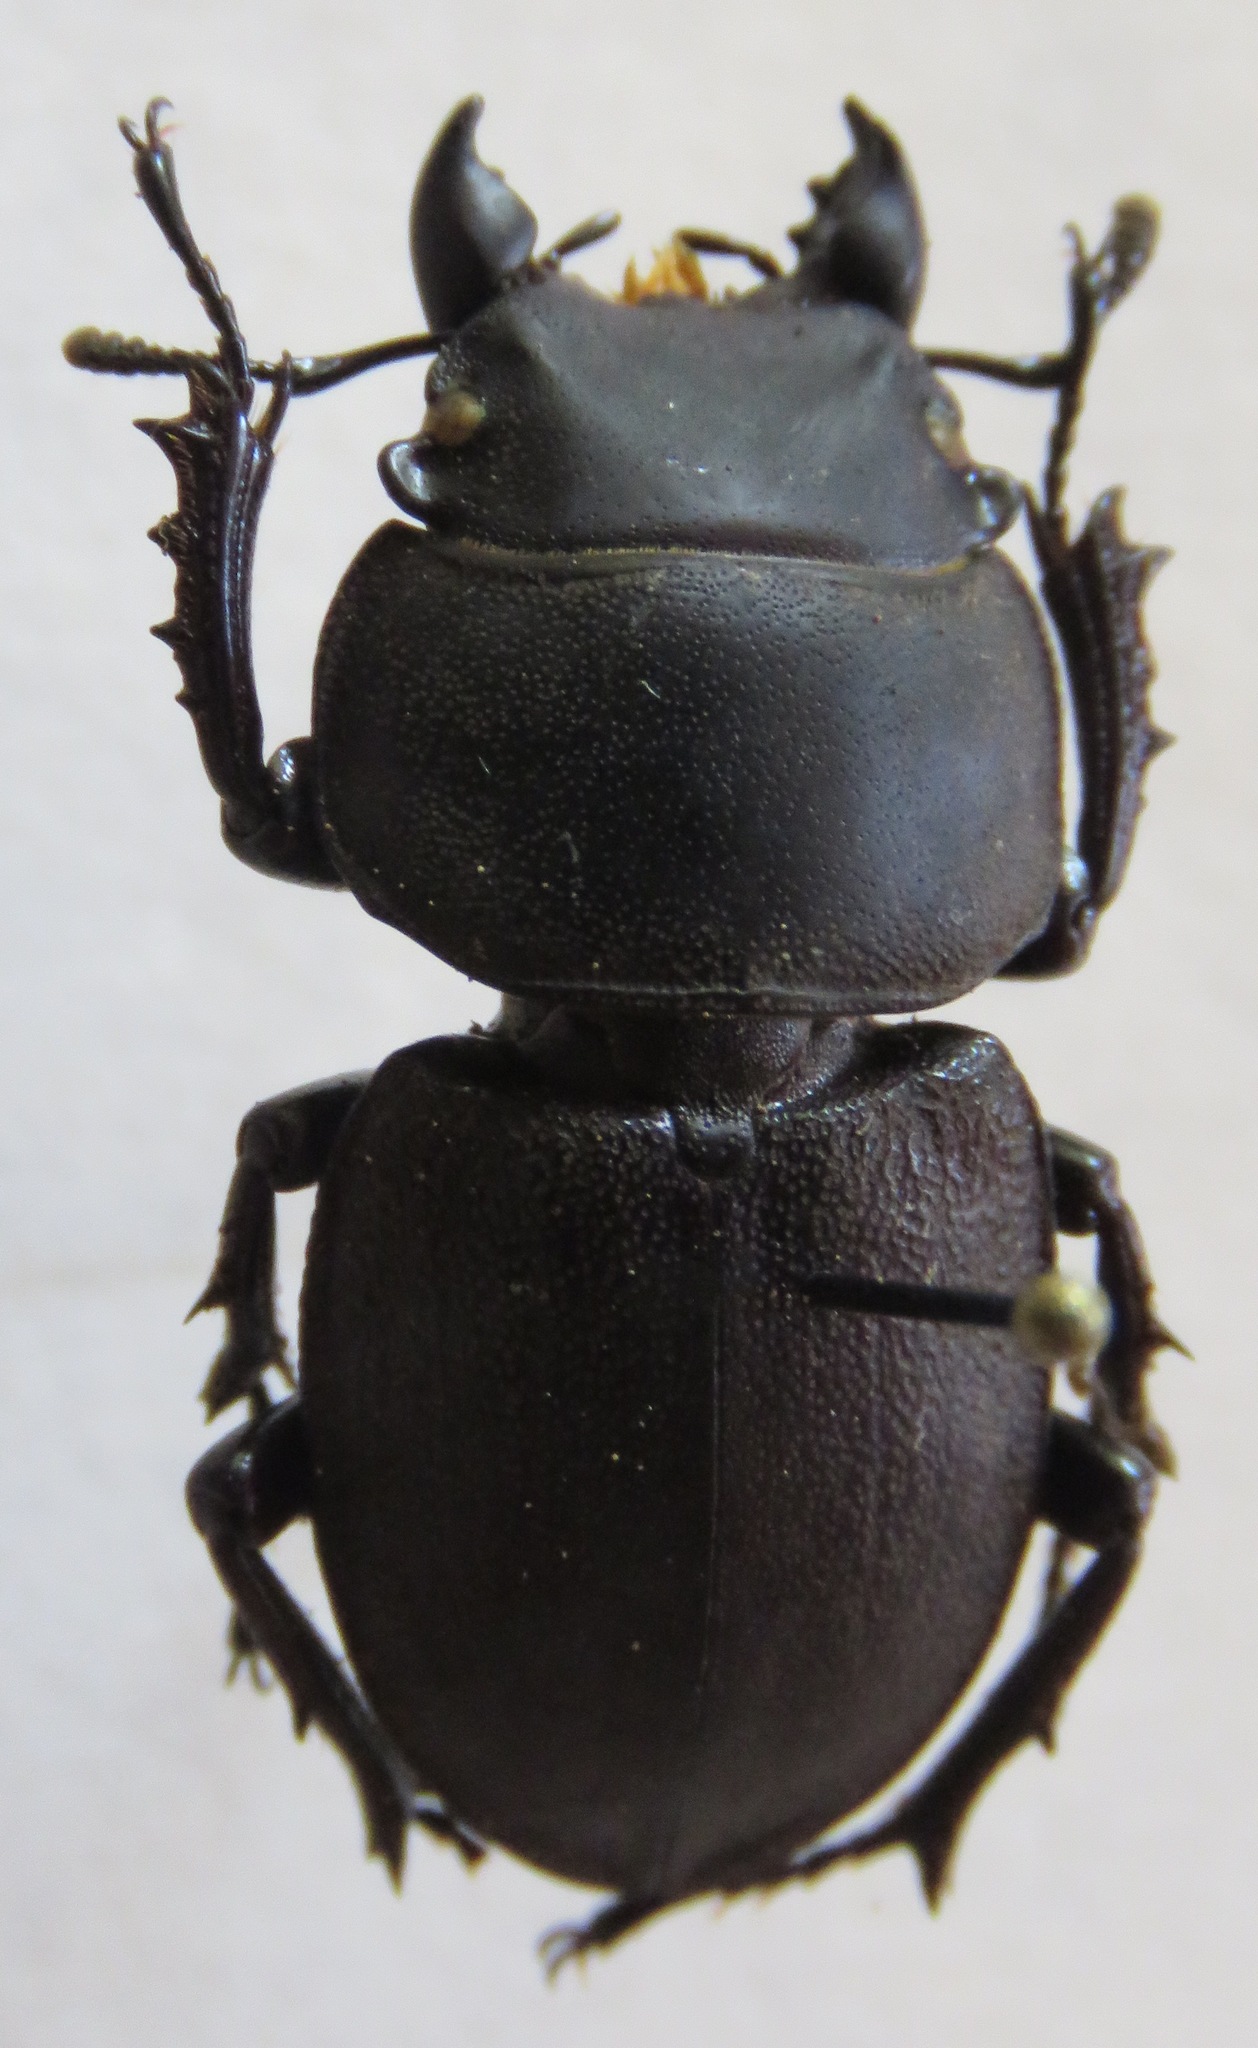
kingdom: Animalia
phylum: Arthropoda
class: Insecta
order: Coleoptera
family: Lucanidae
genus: Apterodorcus
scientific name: Apterodorcus bacchus
